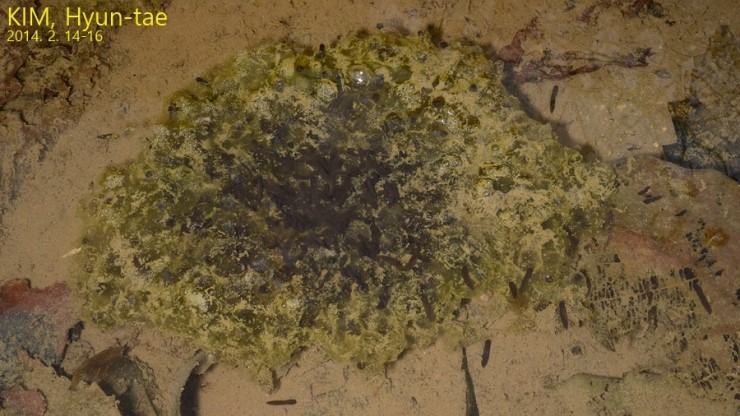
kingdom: Animalia
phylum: Chordata
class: Amphibia
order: Anura
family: Ranidae
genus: Rana
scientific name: Rana uenoi
